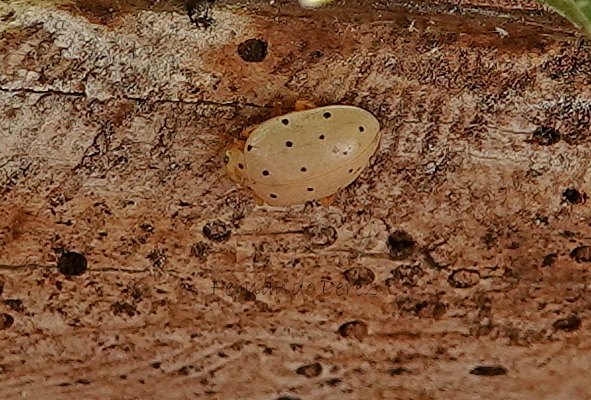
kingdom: Animalia
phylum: Arthropoda
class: Insecta
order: Coleoptera
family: Coccinellidae
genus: Neohalyzia
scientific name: Neohalyzia
